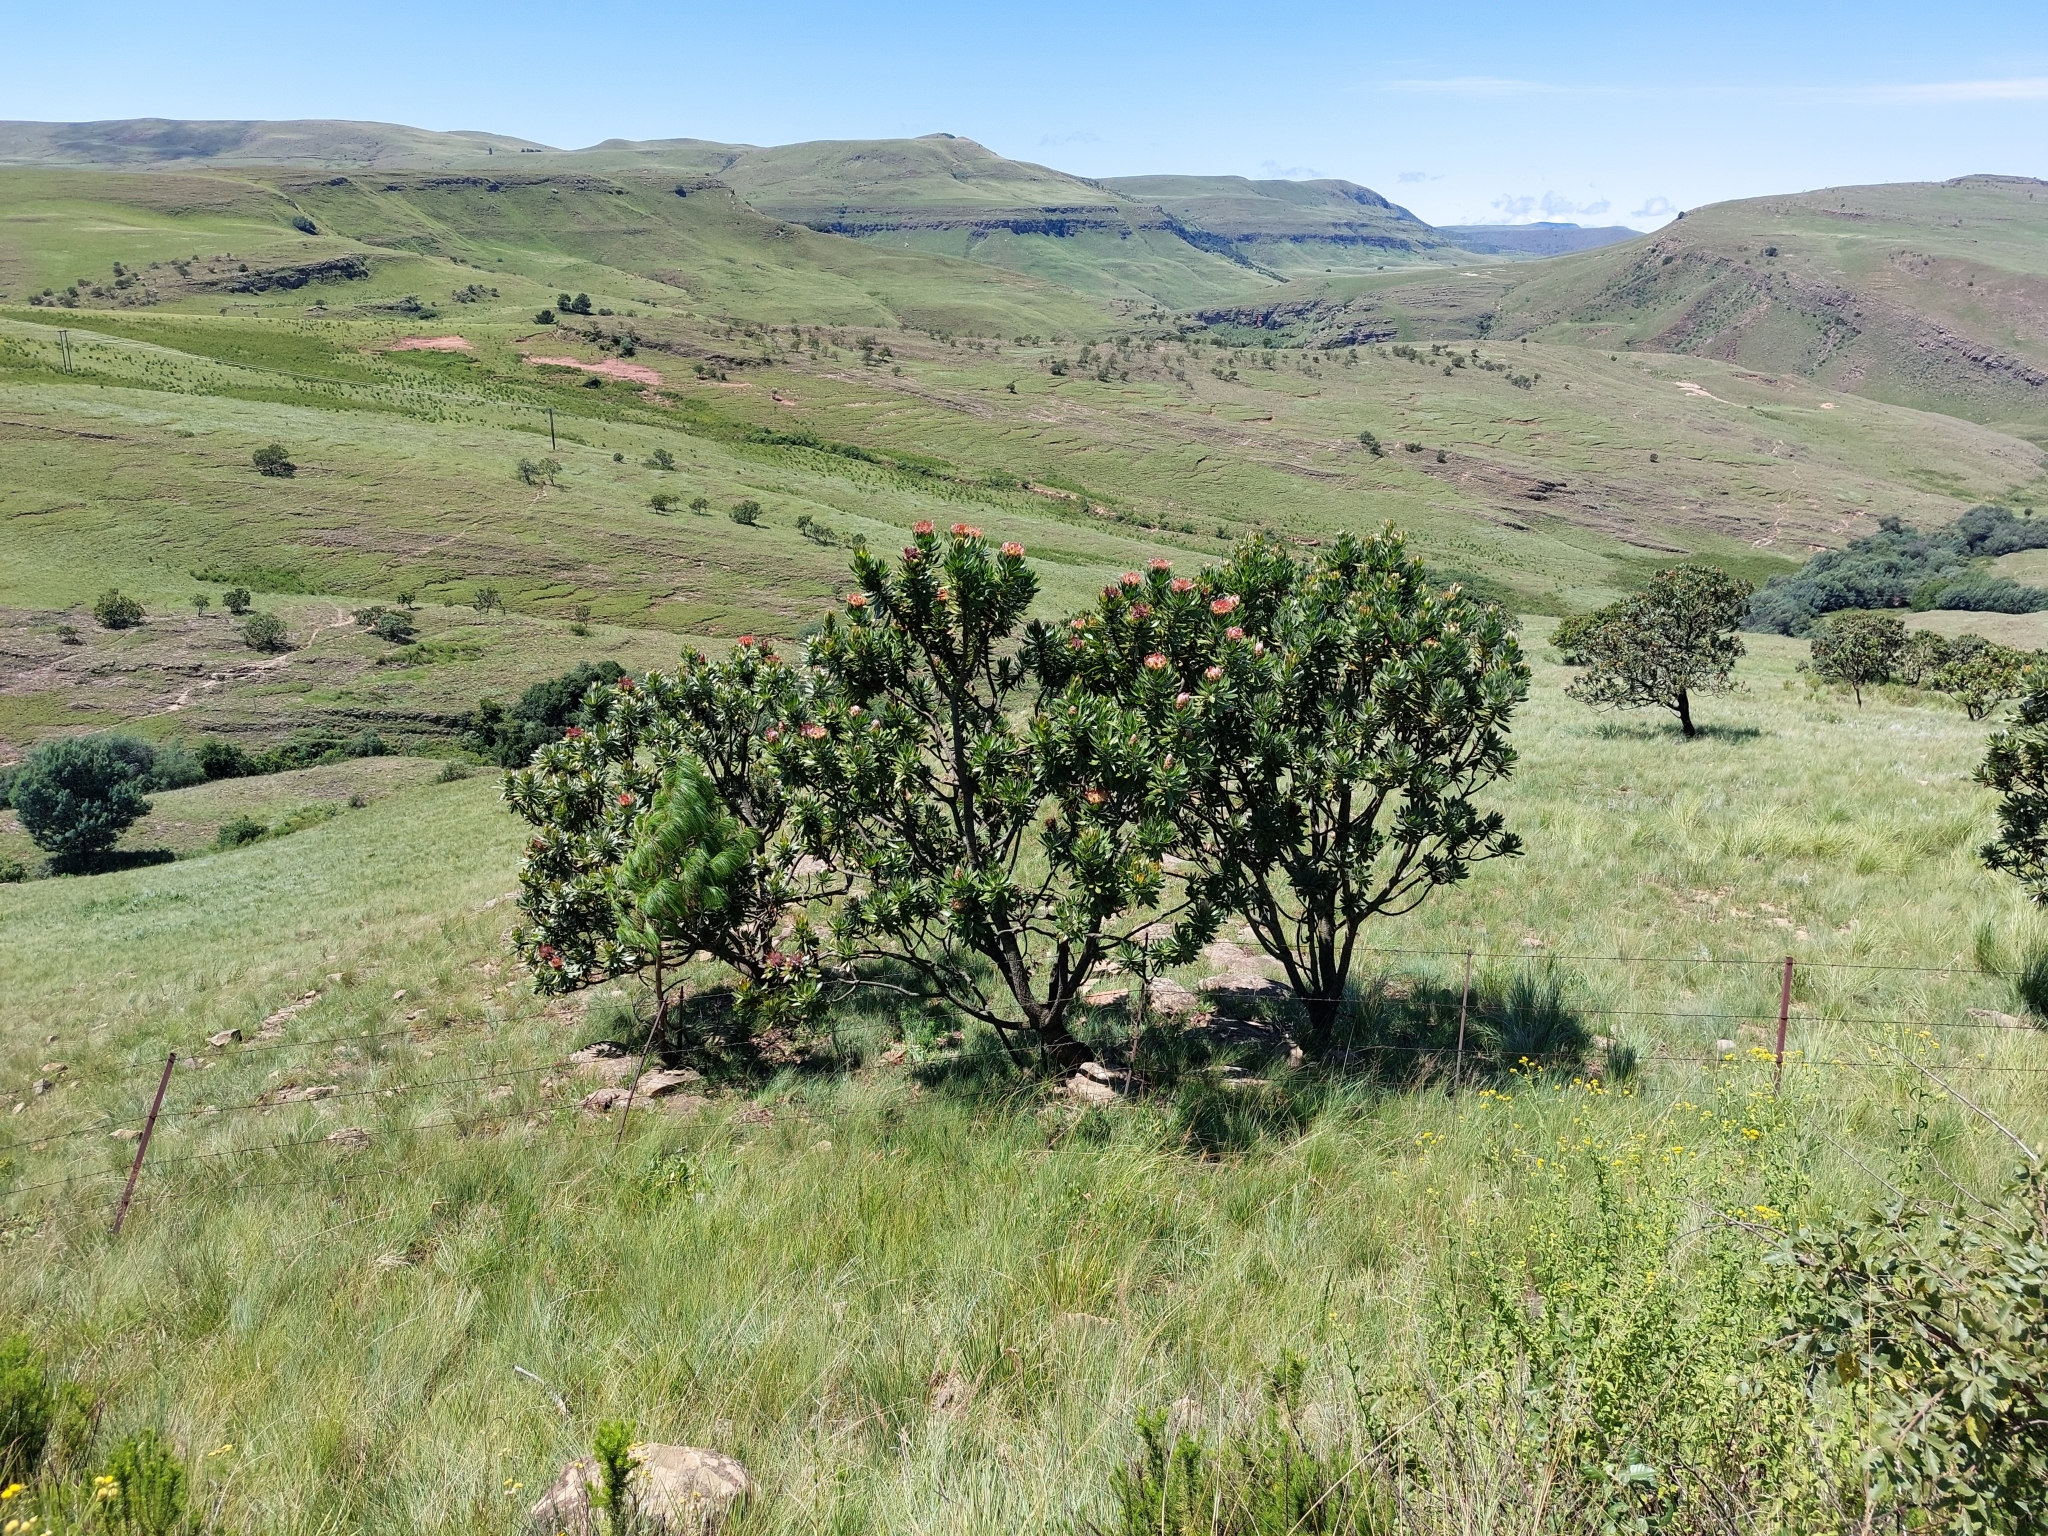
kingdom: Plantae
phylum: Tracheophyta
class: Magnoliopsida
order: Proteales
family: Proteaceae
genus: Protea
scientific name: Protea roupelliae
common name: Silver sugarbush
